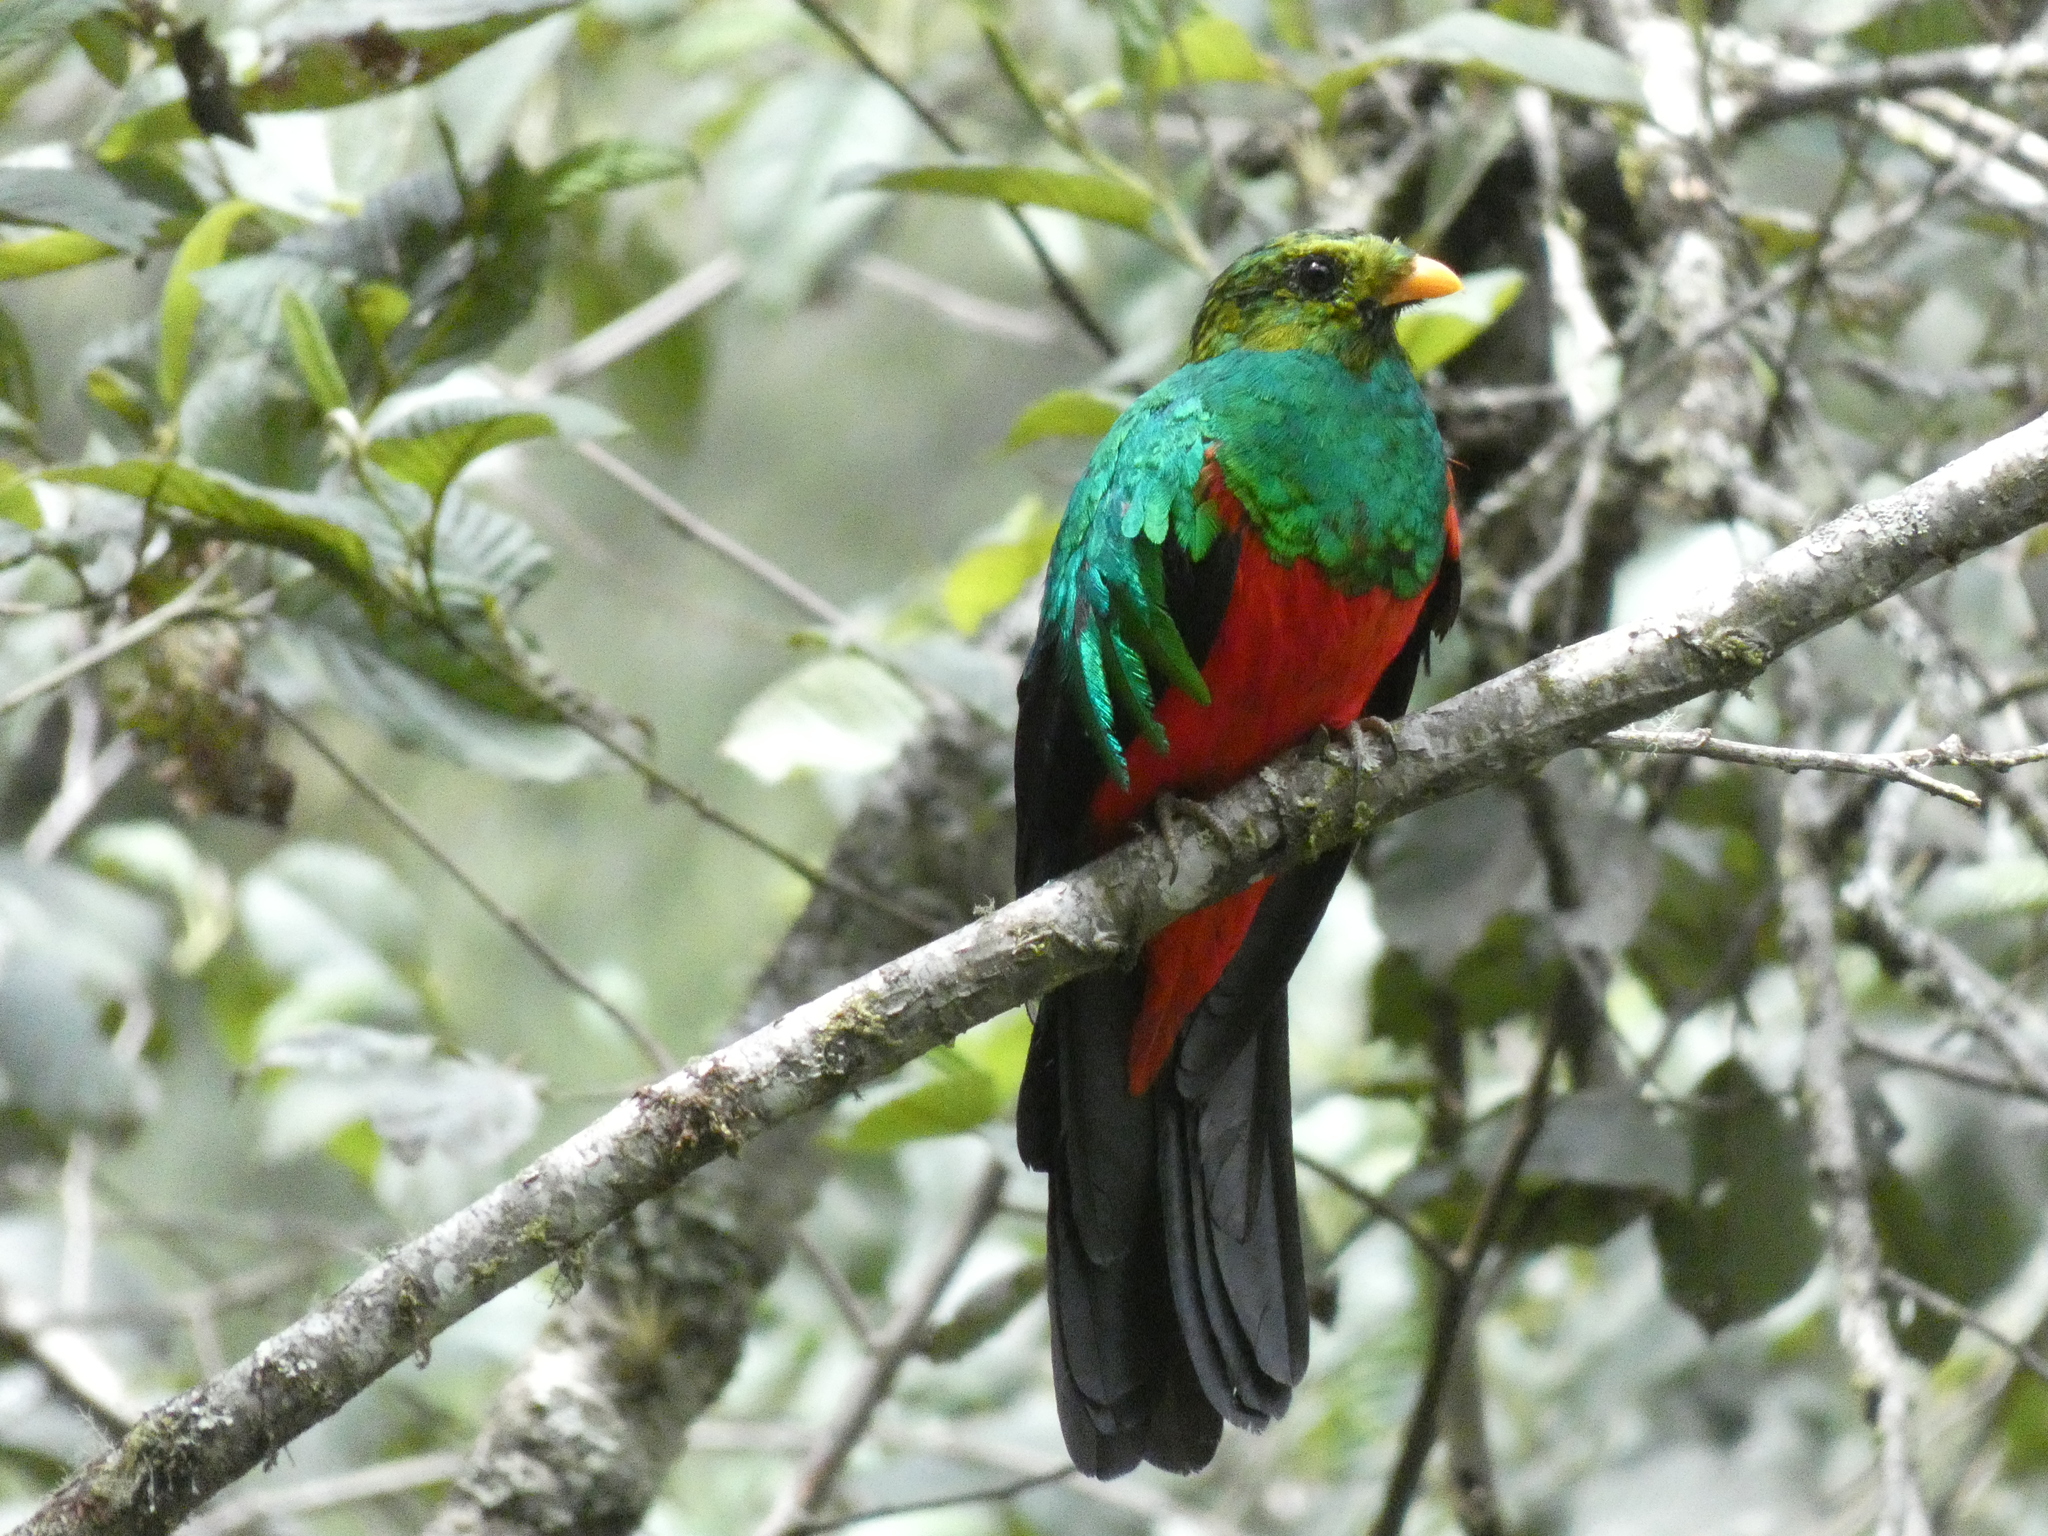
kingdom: Animalia
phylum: Chordata
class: Aves
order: Trogoniformes
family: Trogonidae
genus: Pharomachrus
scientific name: Pharomachrus auriceps
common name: Golden-headed quetzal
